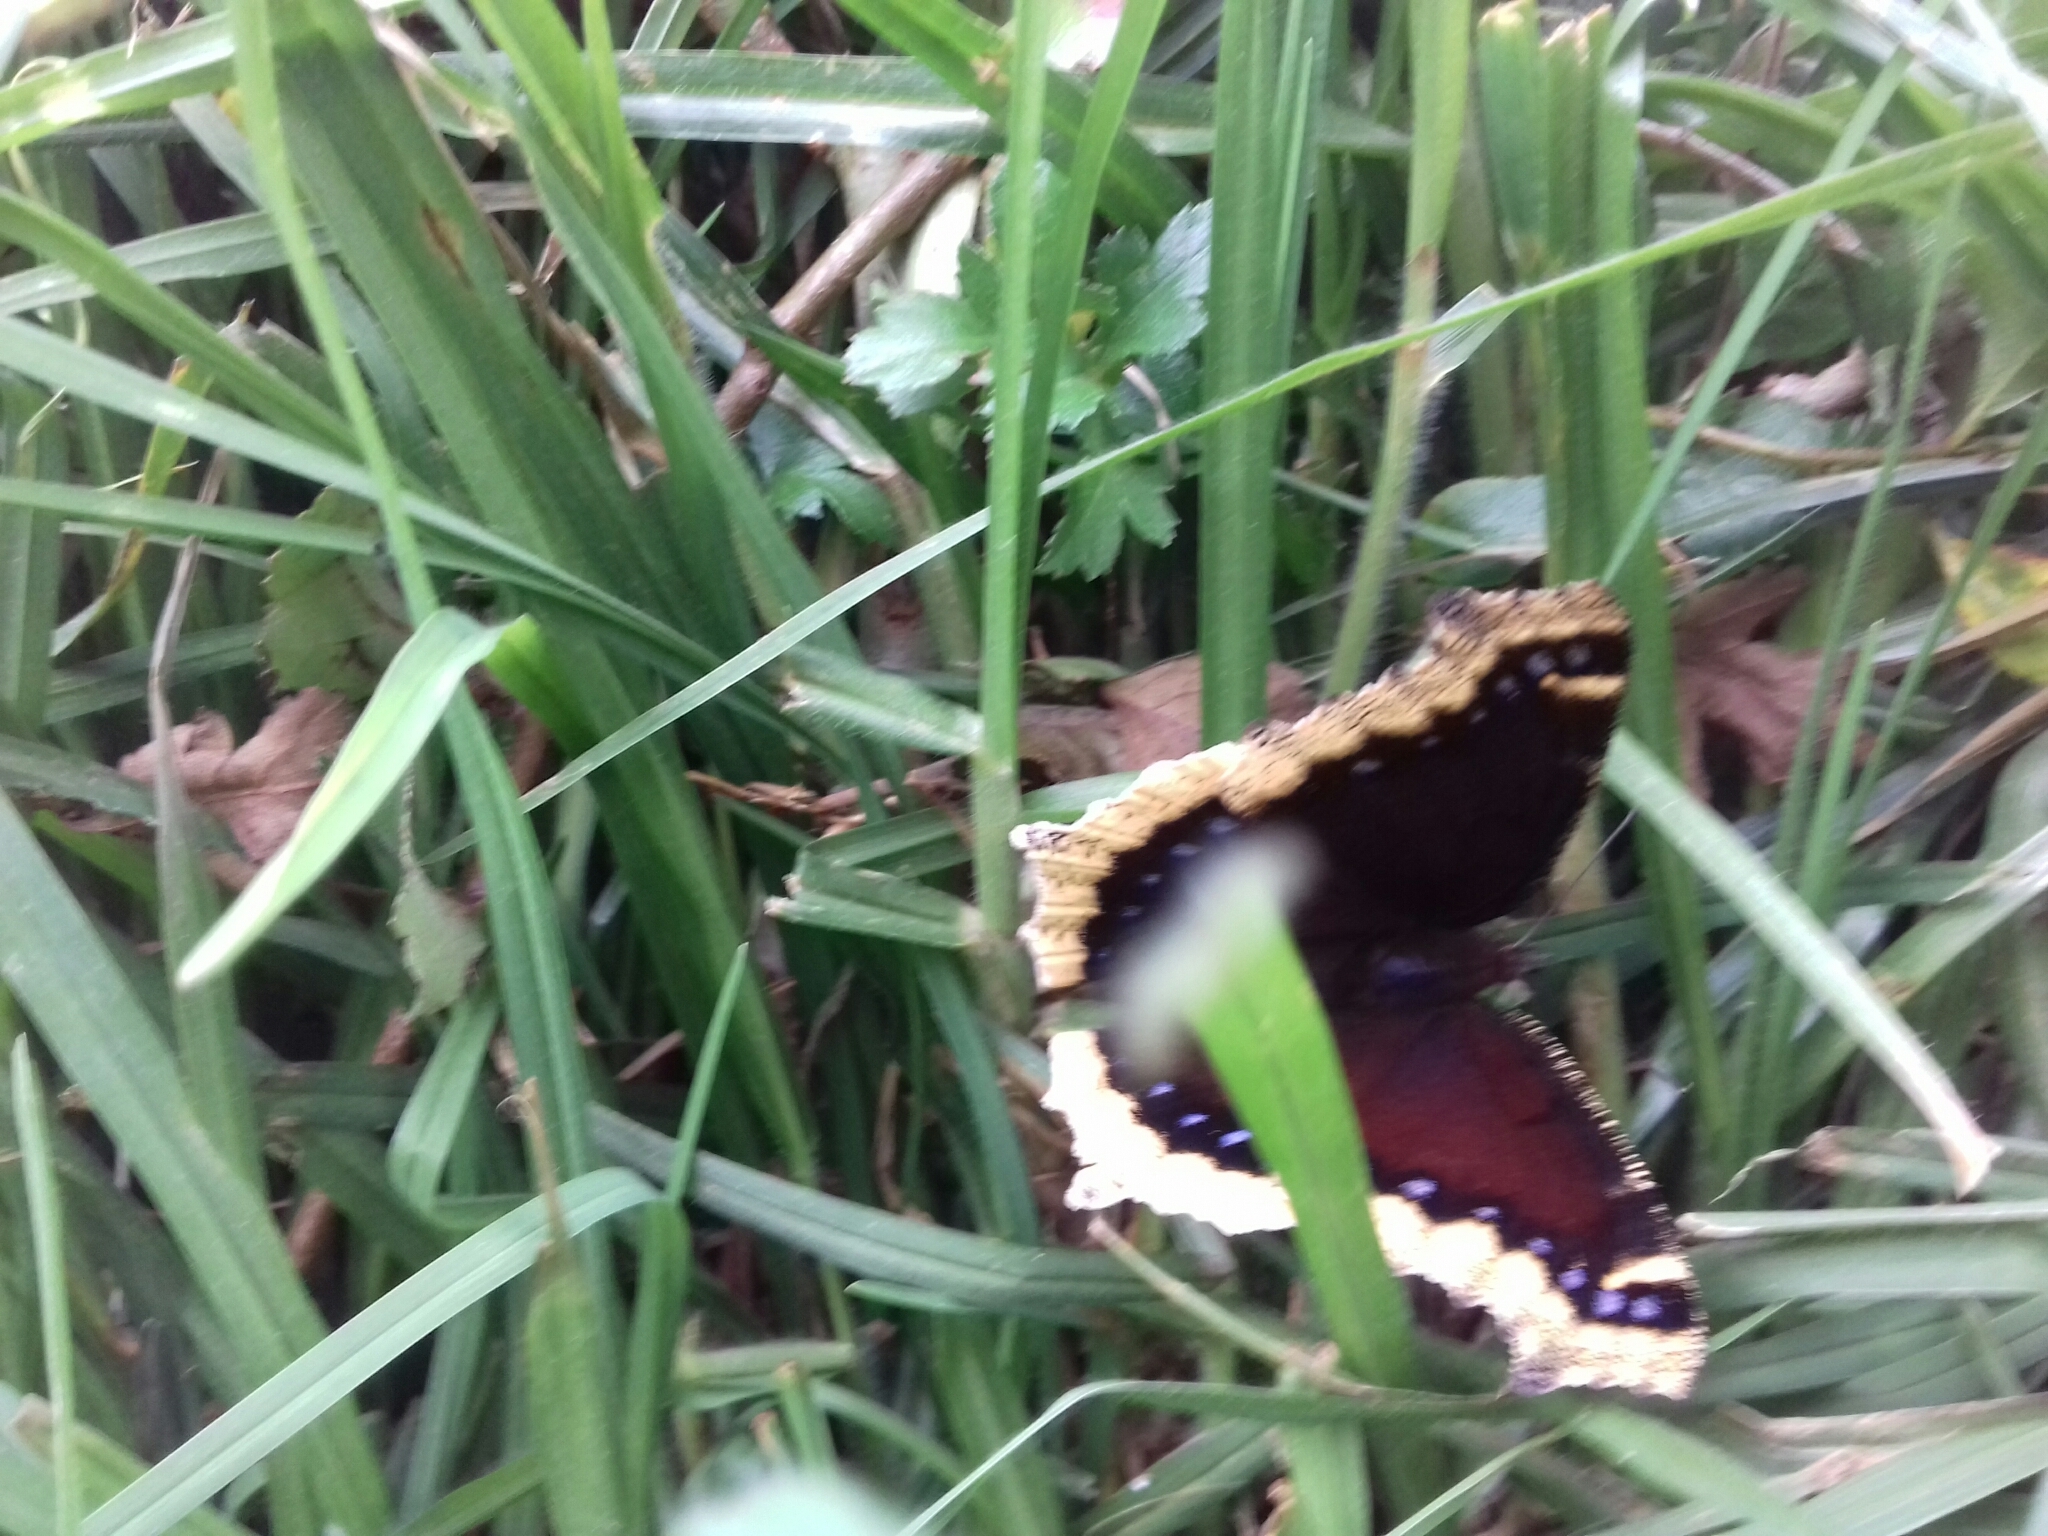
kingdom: Animalia
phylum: Arthropoda
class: Insecta
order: Lepidoptera
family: Nymphalidae
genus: Nymphalis
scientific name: Nymphalis antiopa
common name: Camberwell beauty
